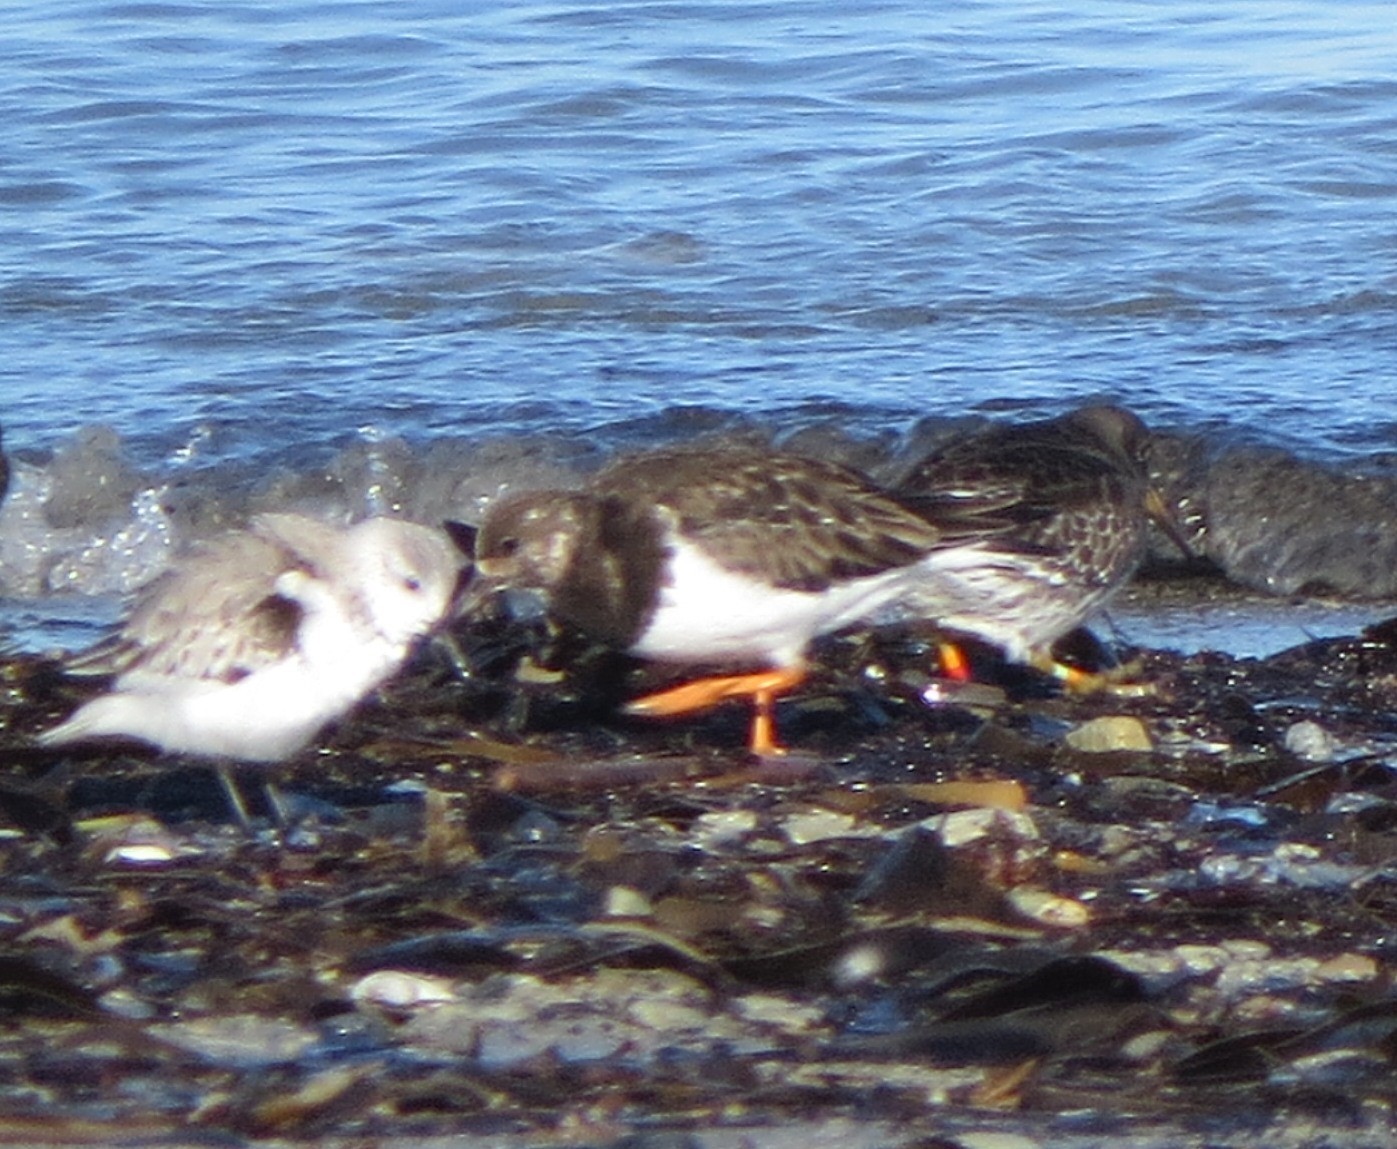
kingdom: Animalia
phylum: Chordata
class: Aves
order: Charadriiformes
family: Scolopacidae
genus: Arenaria
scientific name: Arenaria interpres
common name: Ruddy turnstone
